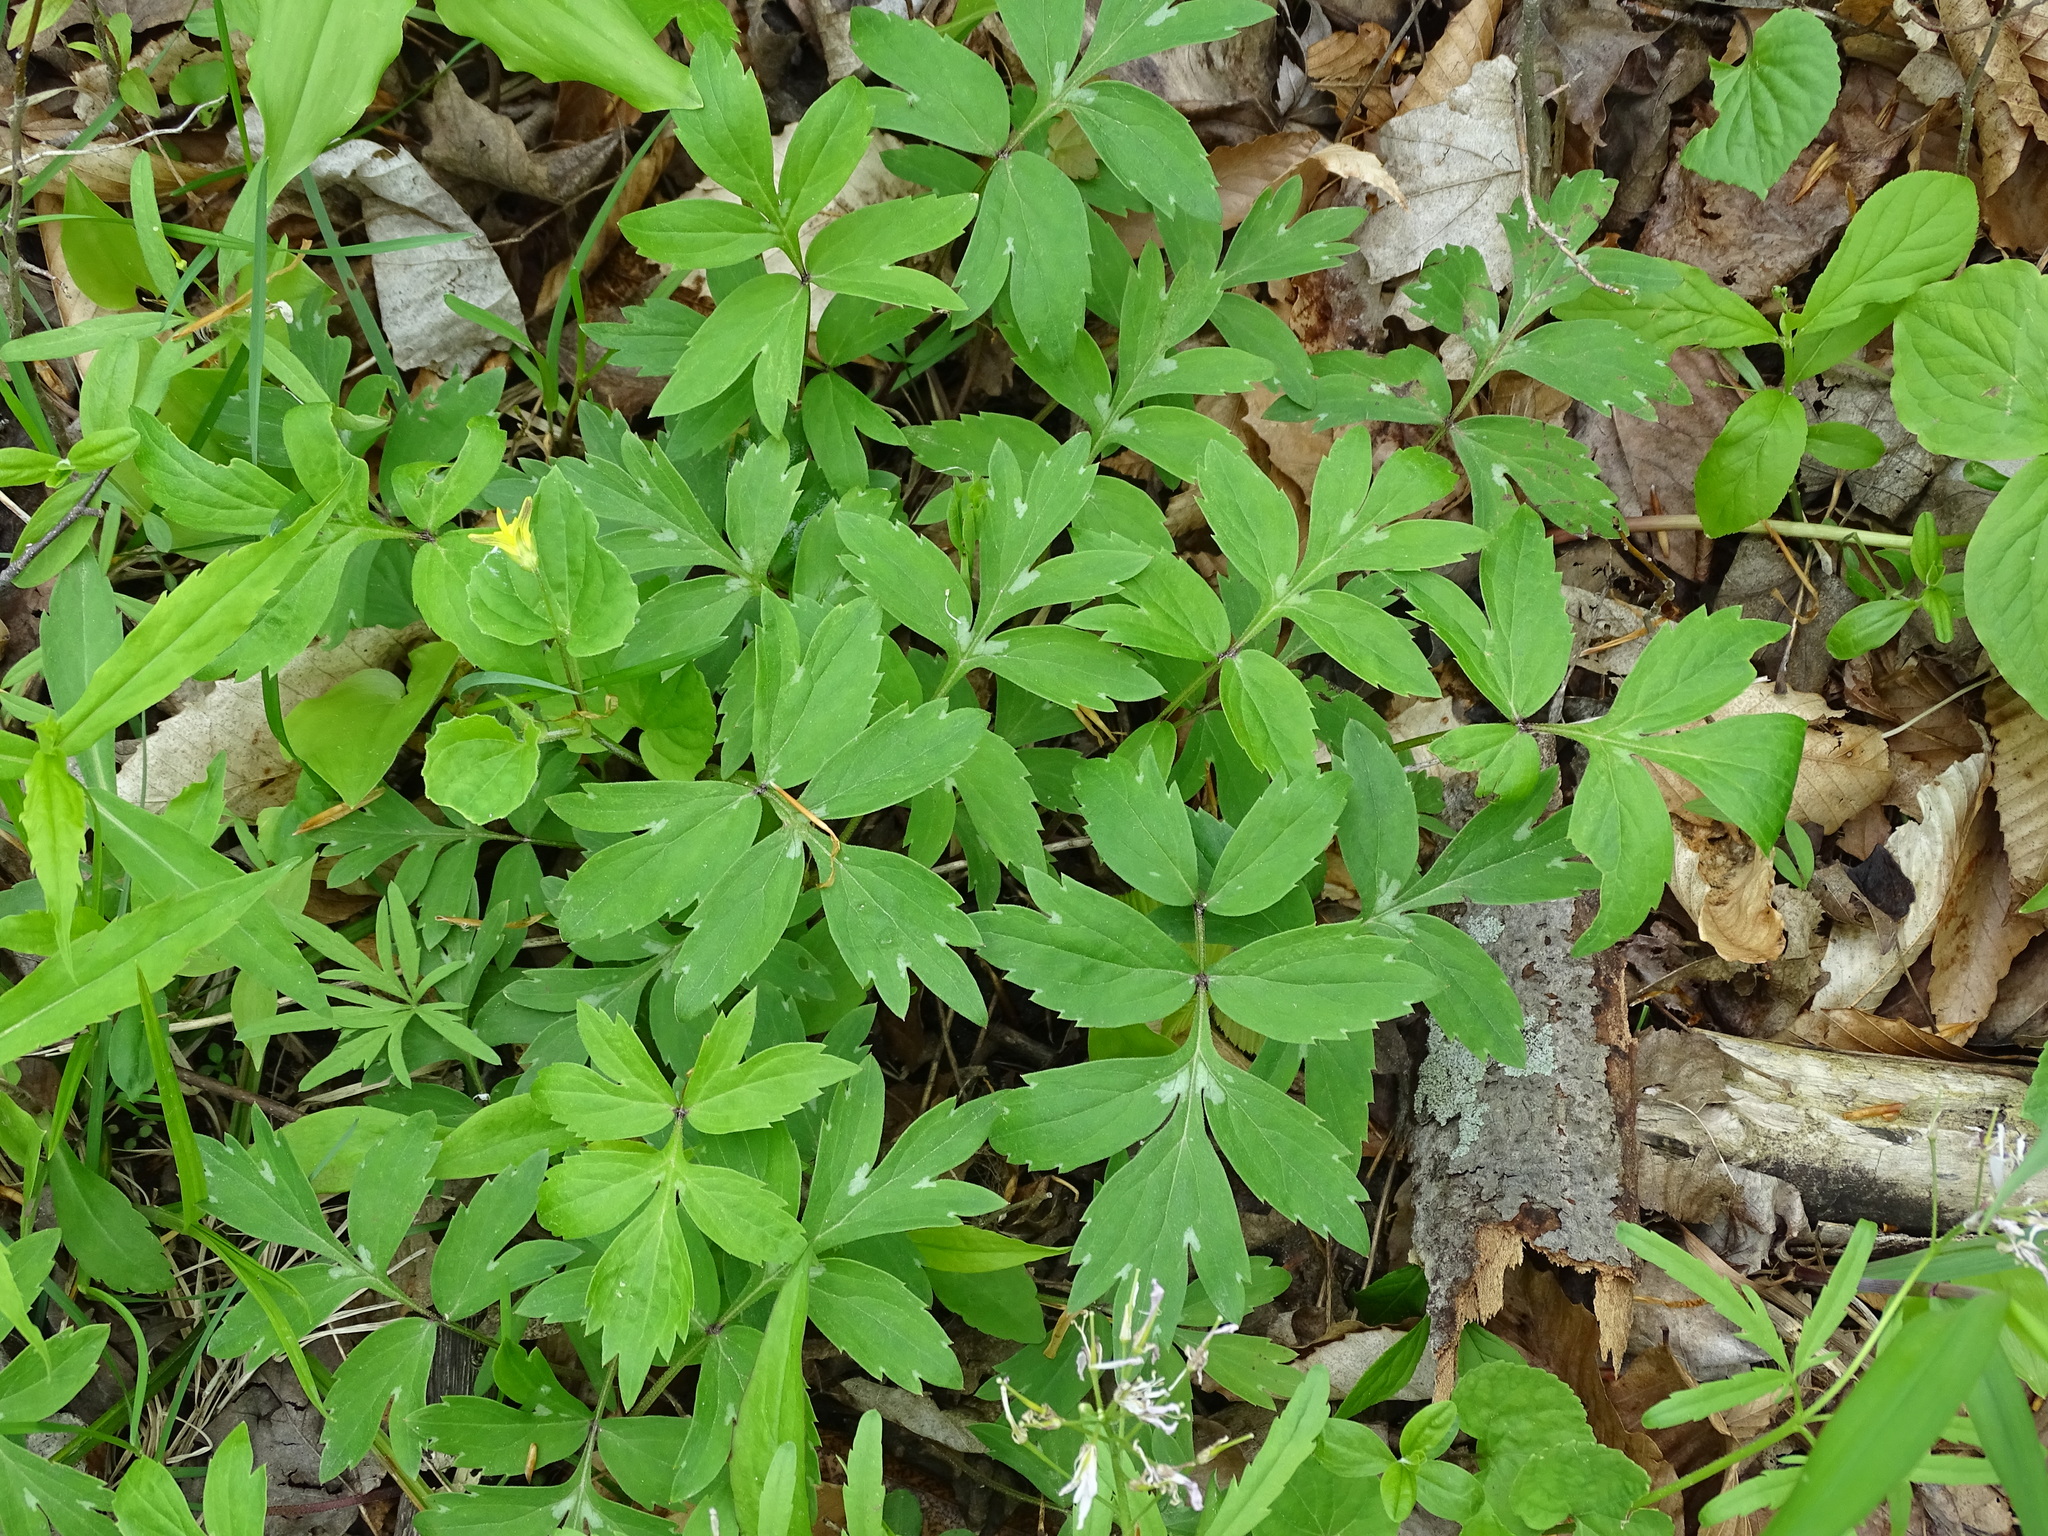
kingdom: Plantae
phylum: Tracheophyta
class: Magnoliopsida
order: Boraginales
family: Hydrophyllaceae
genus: Hydrophyllum
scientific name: Hydrophyllum virginianum
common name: Virginia waterleaf
